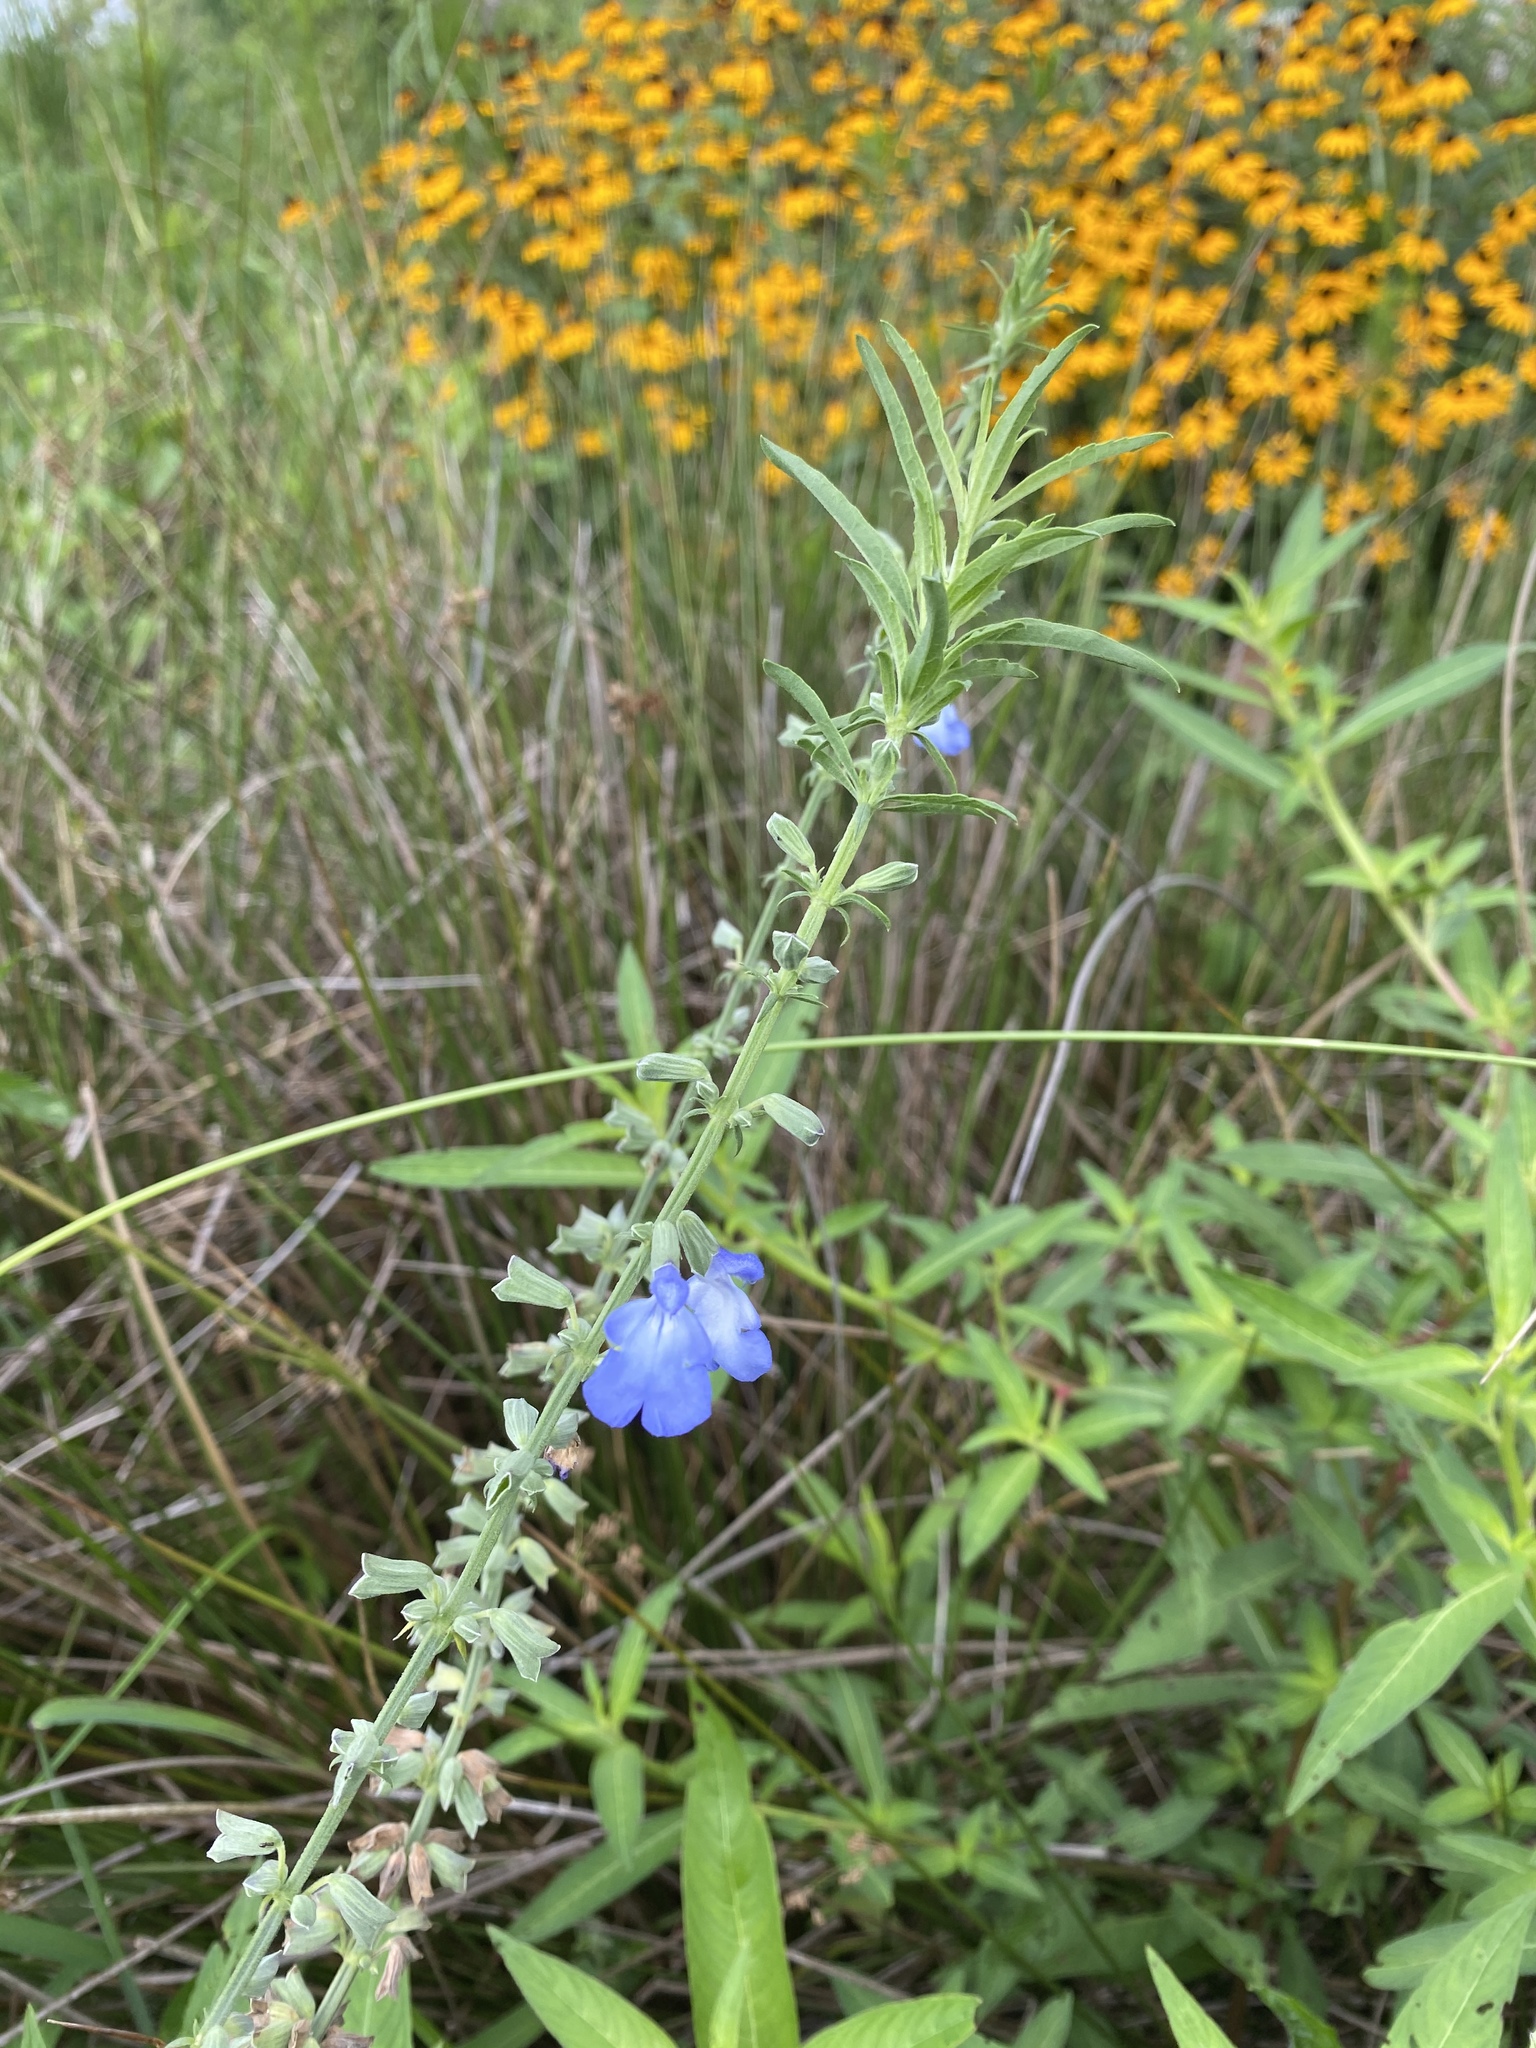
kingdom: Plantae
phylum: Tracheophyta
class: Magnoliopsida
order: Lamiales
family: Lamiaceae
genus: Salvia
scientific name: Salvia azurea
